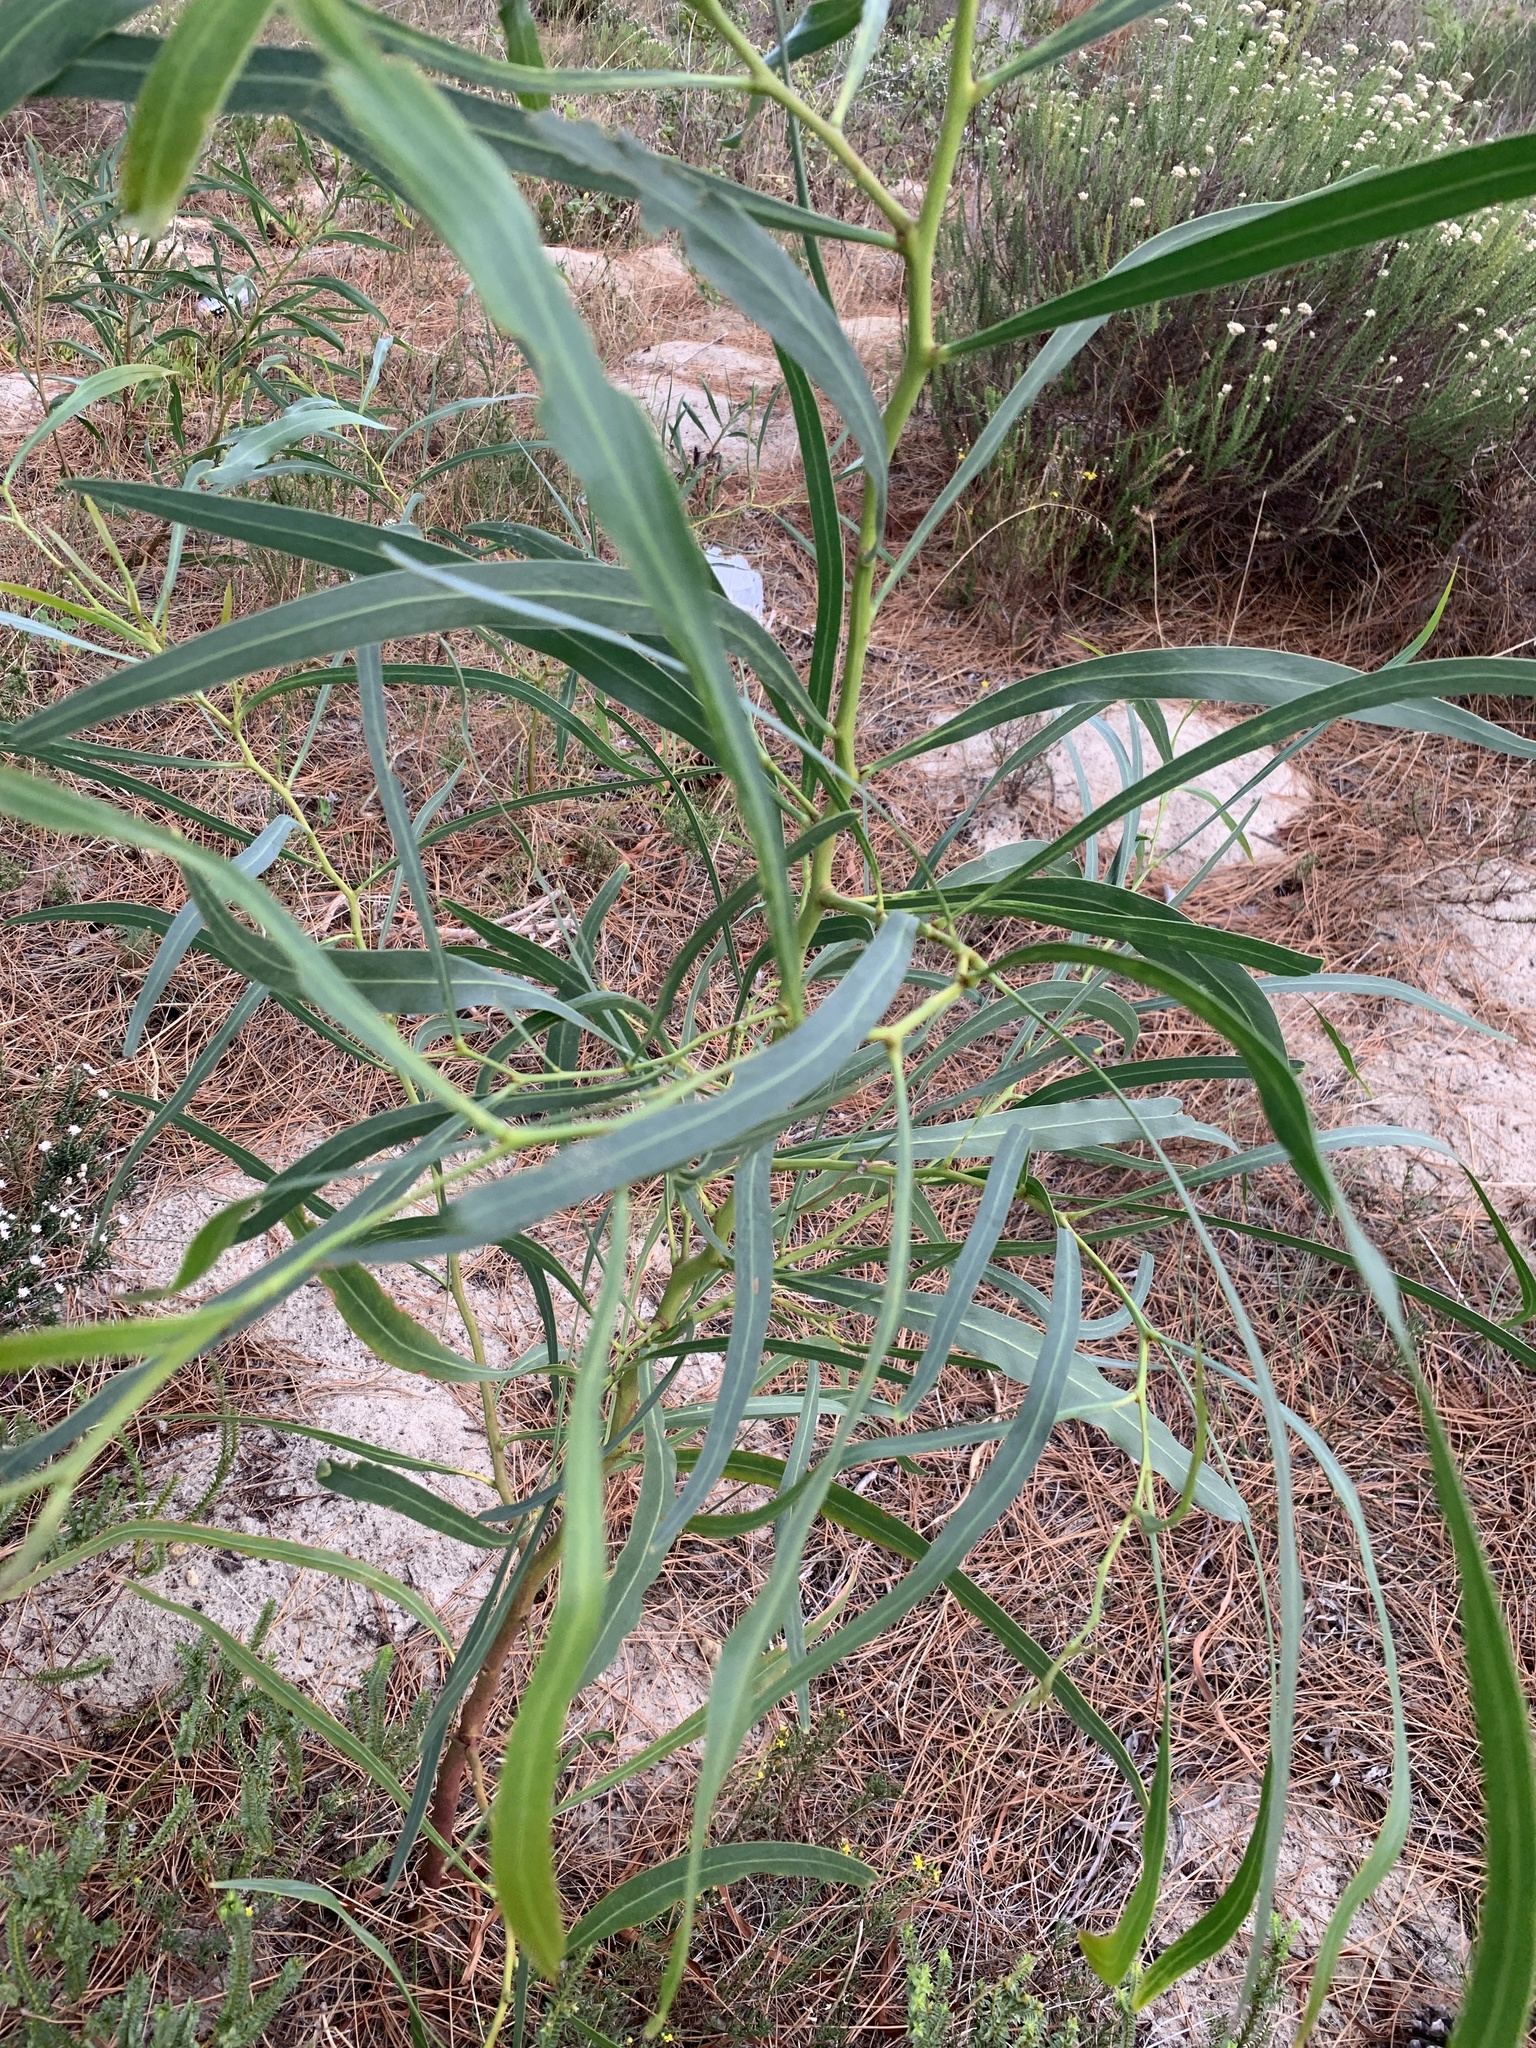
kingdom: Plantae
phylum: Tracheophyta
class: Magnoliopsida
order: Fabales
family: Fabaceae
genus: Acacia
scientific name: Acacia saligna
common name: Orange wattle
